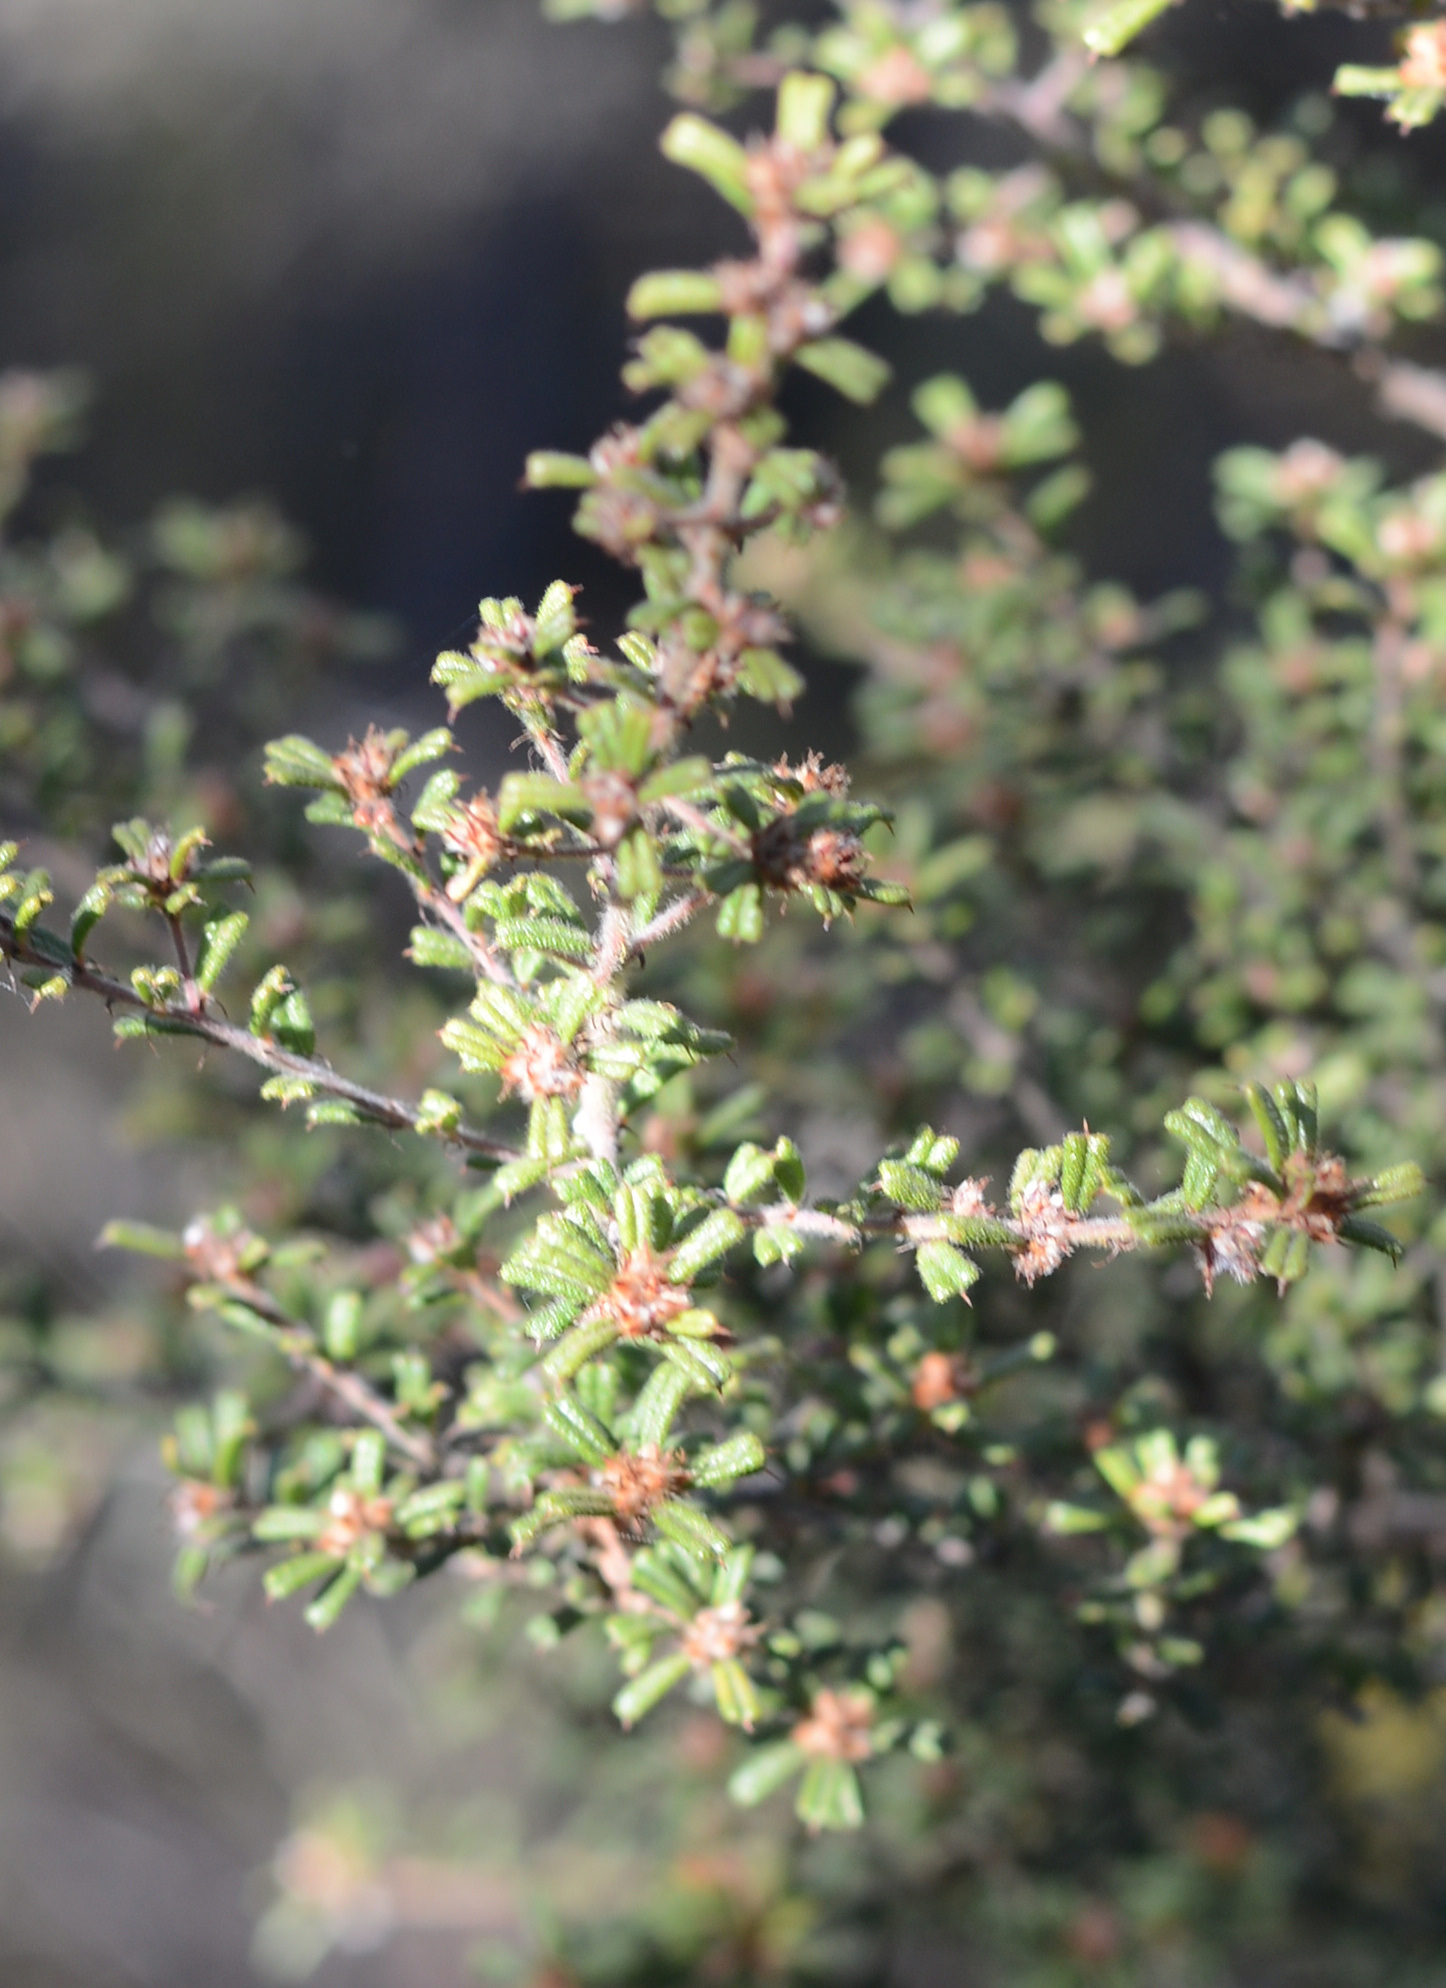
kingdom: Plantae
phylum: Tracheophyta
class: Magnoliopsida
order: Fabales
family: Fabaceae
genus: Pultenaea
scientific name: Pultenaea scabra
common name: Rough bush-pea
